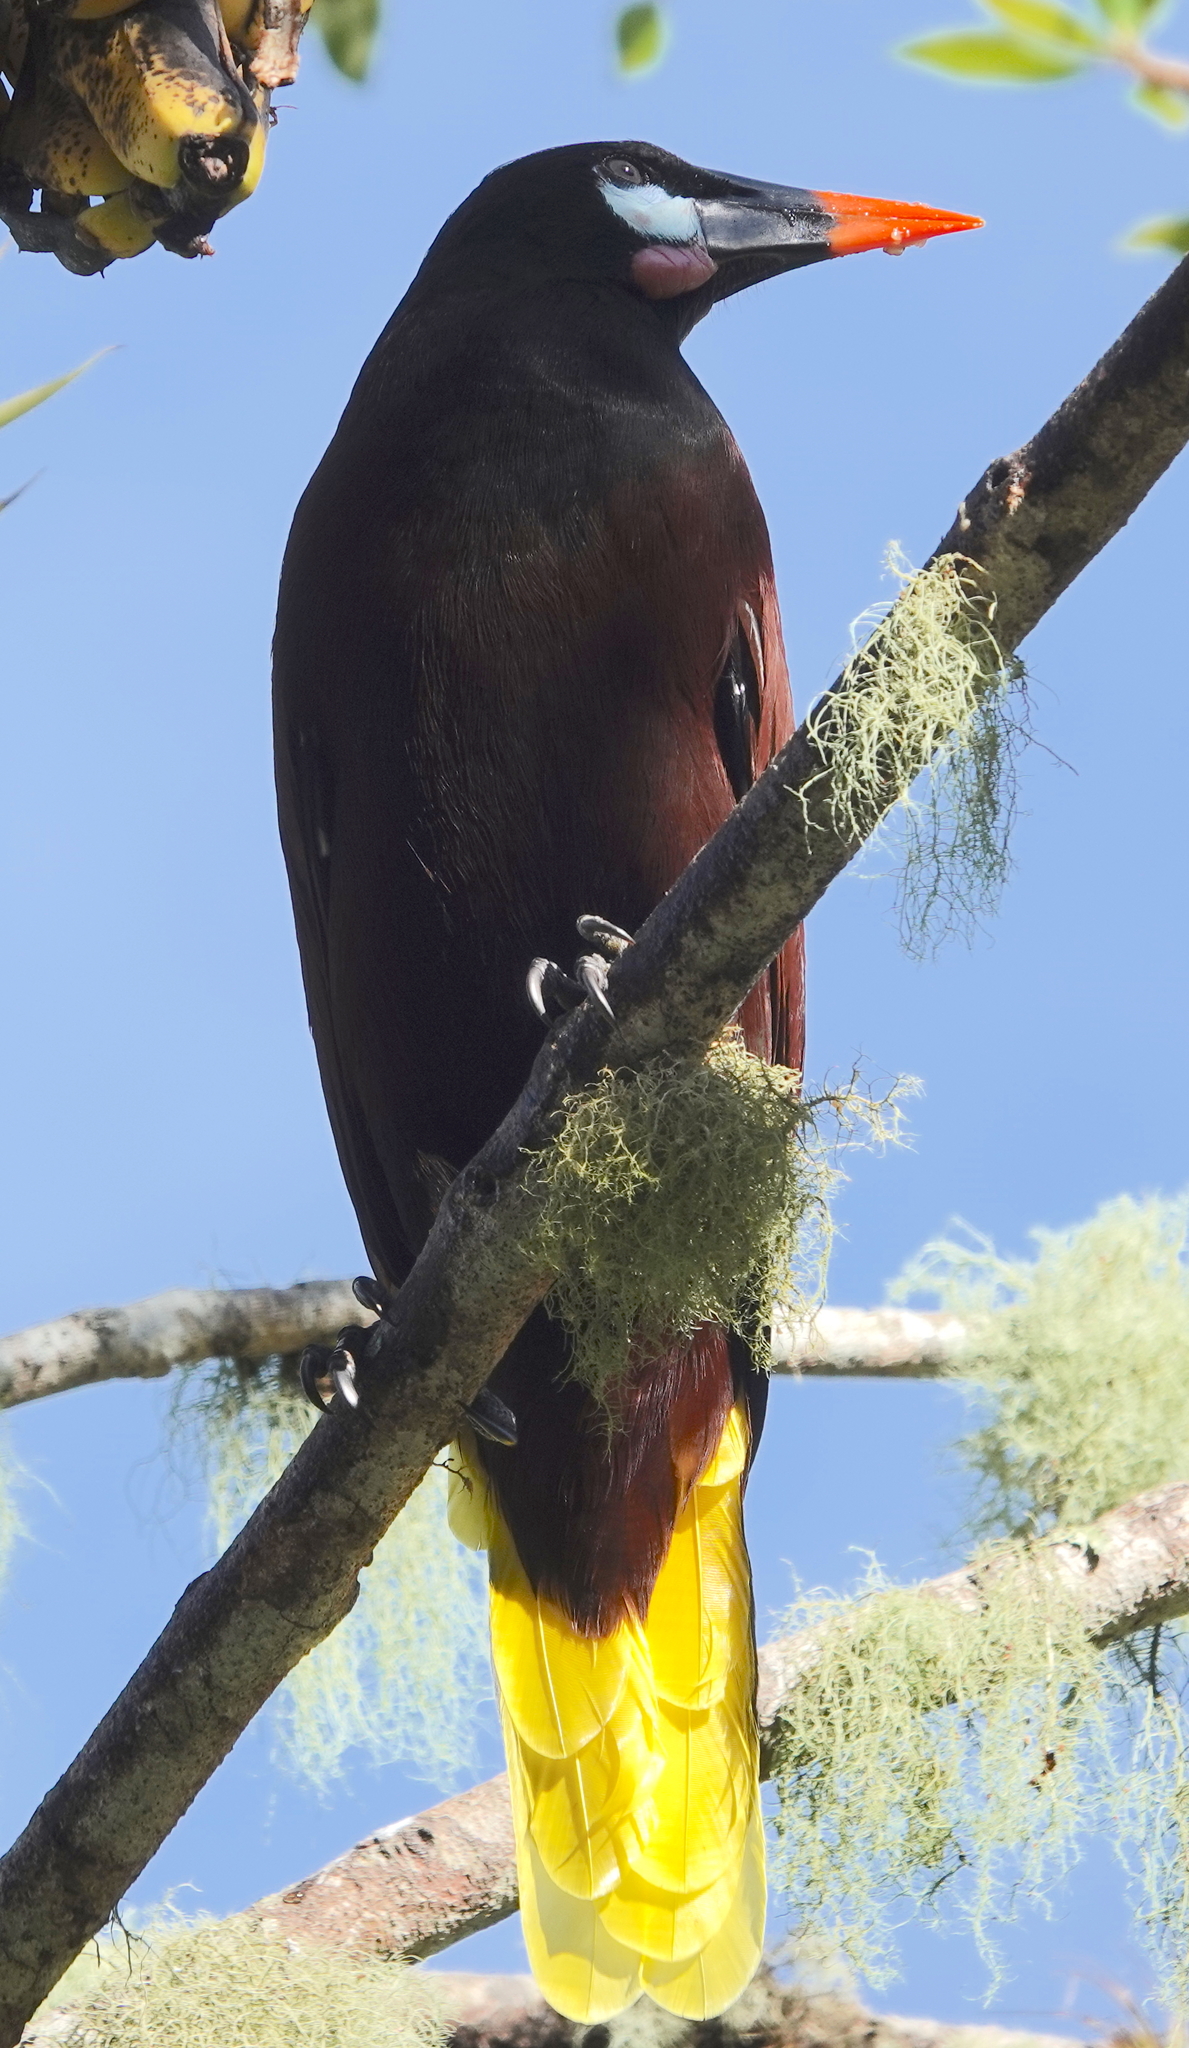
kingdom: Animalia
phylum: Chordata
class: Aves
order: Passeriformes
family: Icteridae
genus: Psarocolius
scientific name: Psarocolius montezuma
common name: Montezuma oropendola
